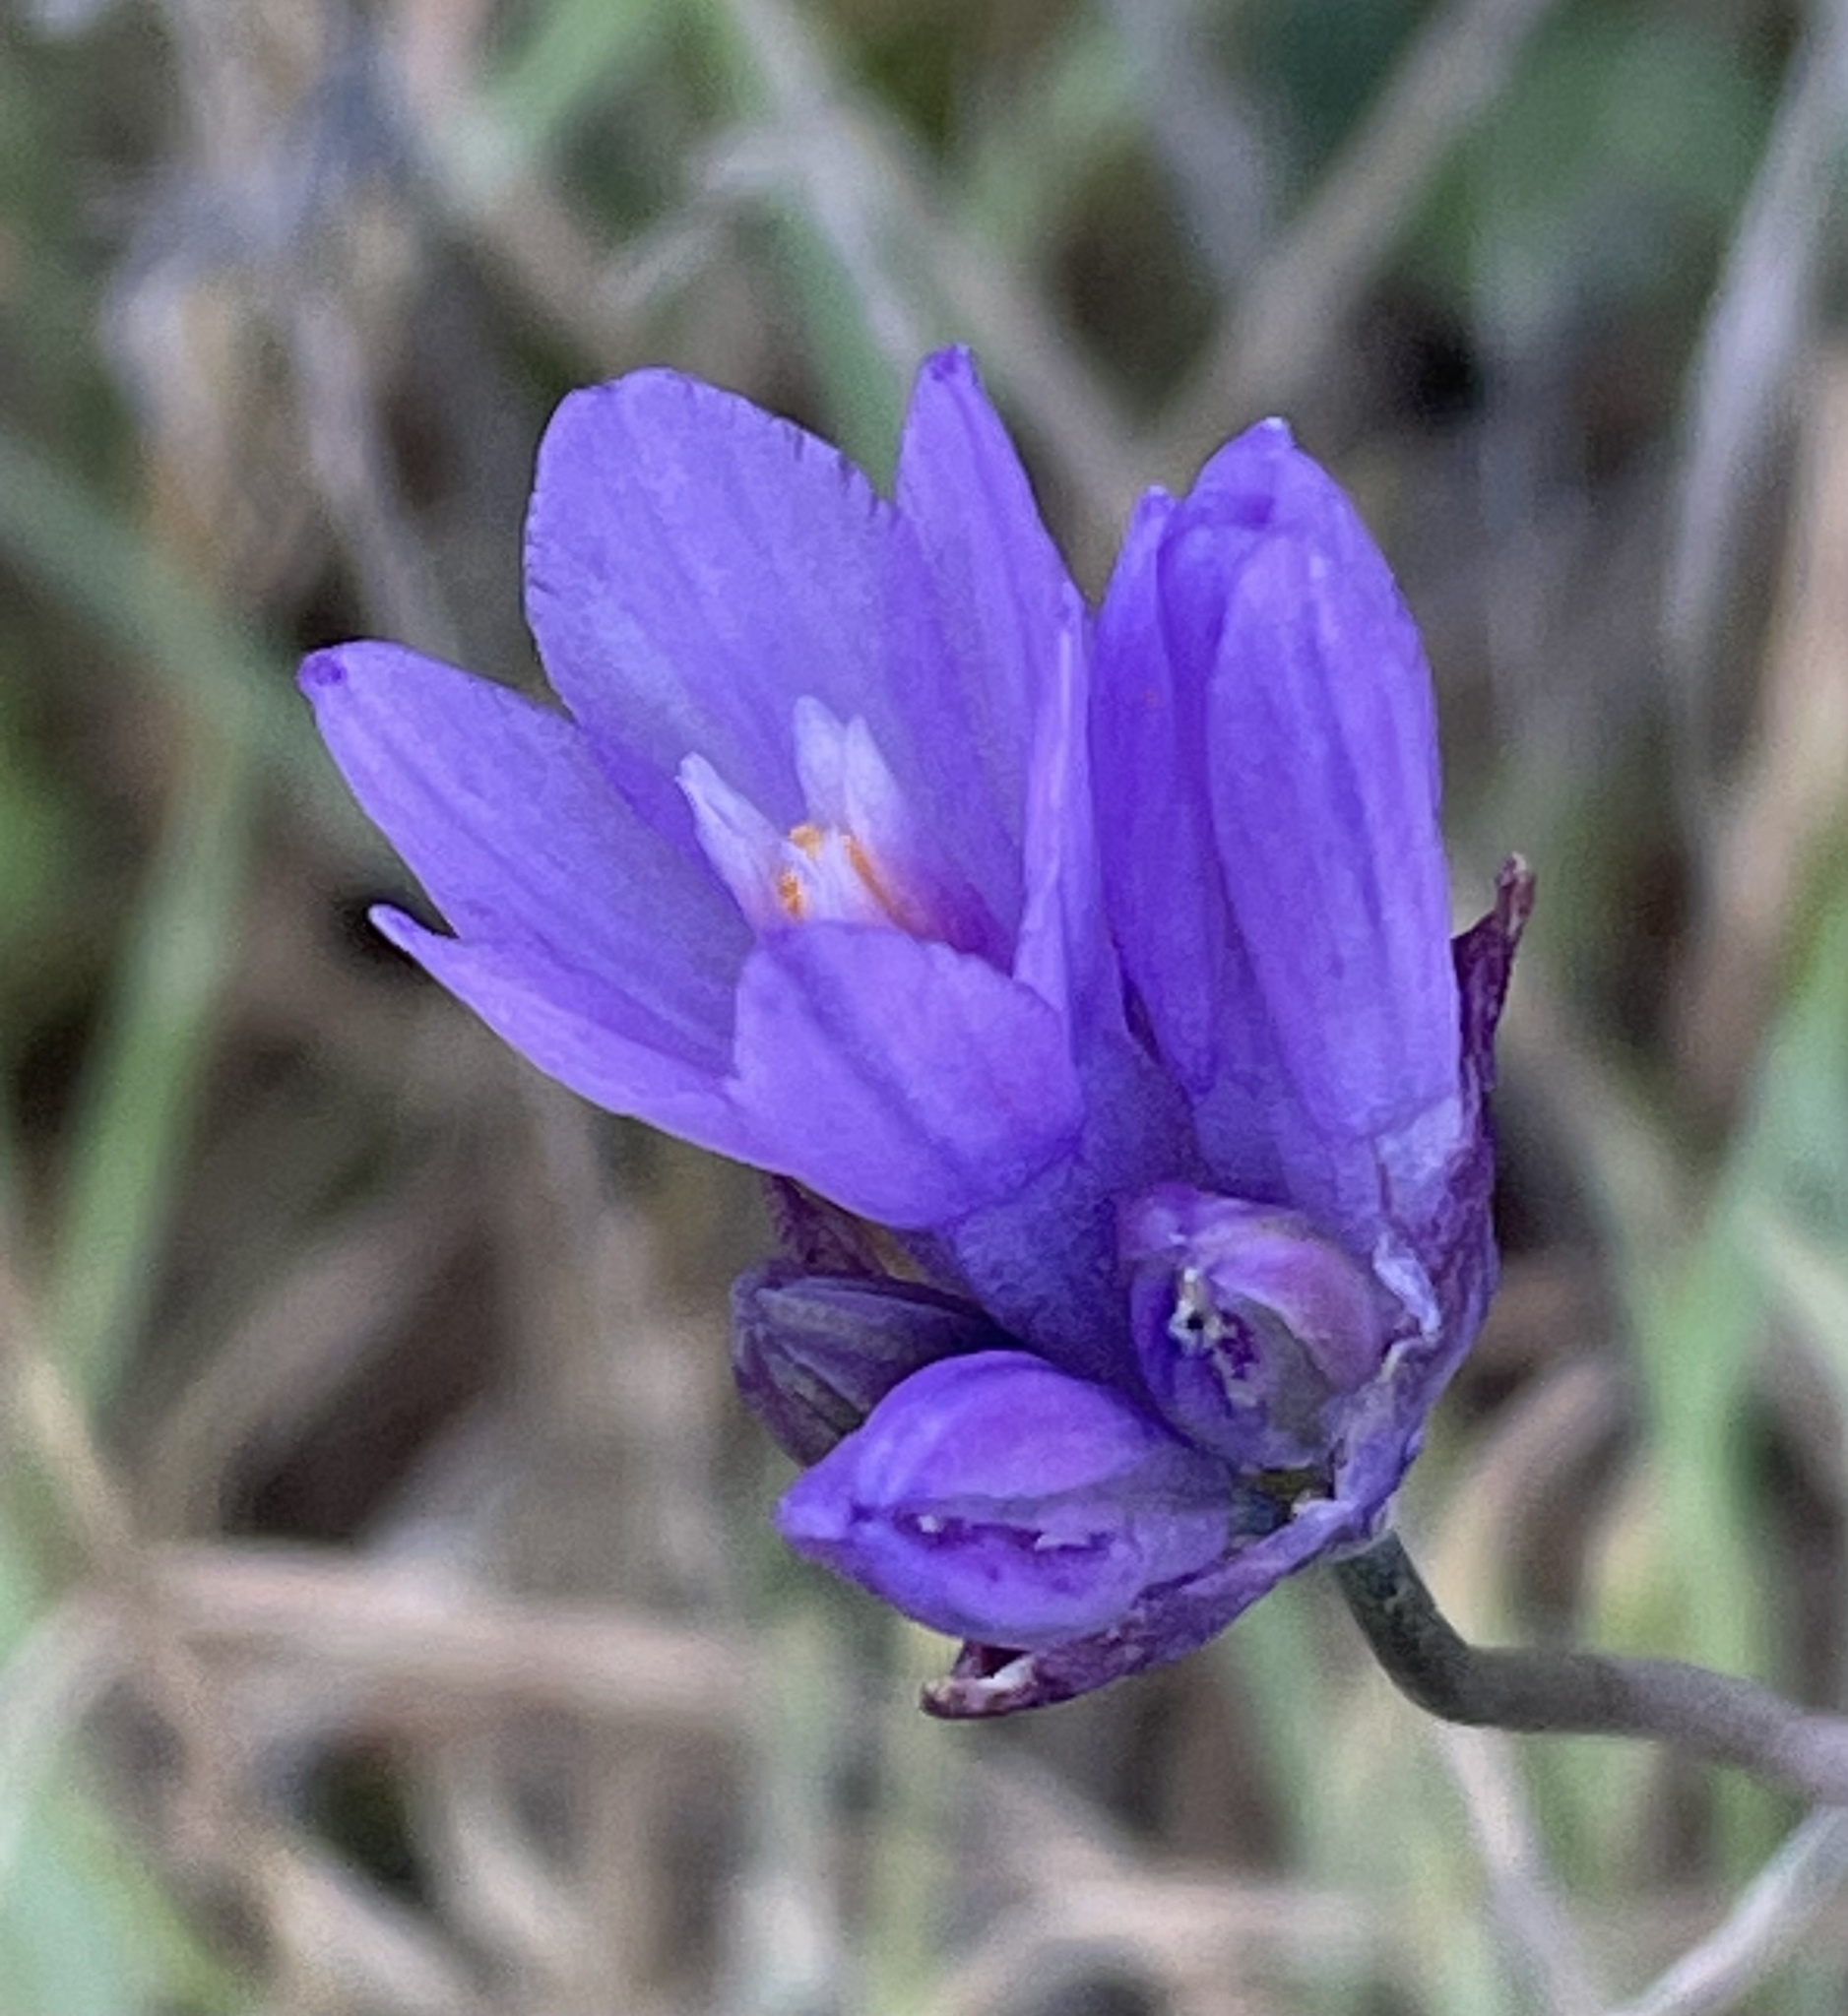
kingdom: Plantae
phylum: Tracheophyta
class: Liliopsida
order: Asparagales
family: Asparagaceae
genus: Dipterostemon
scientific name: Dipterostemon capitatus
